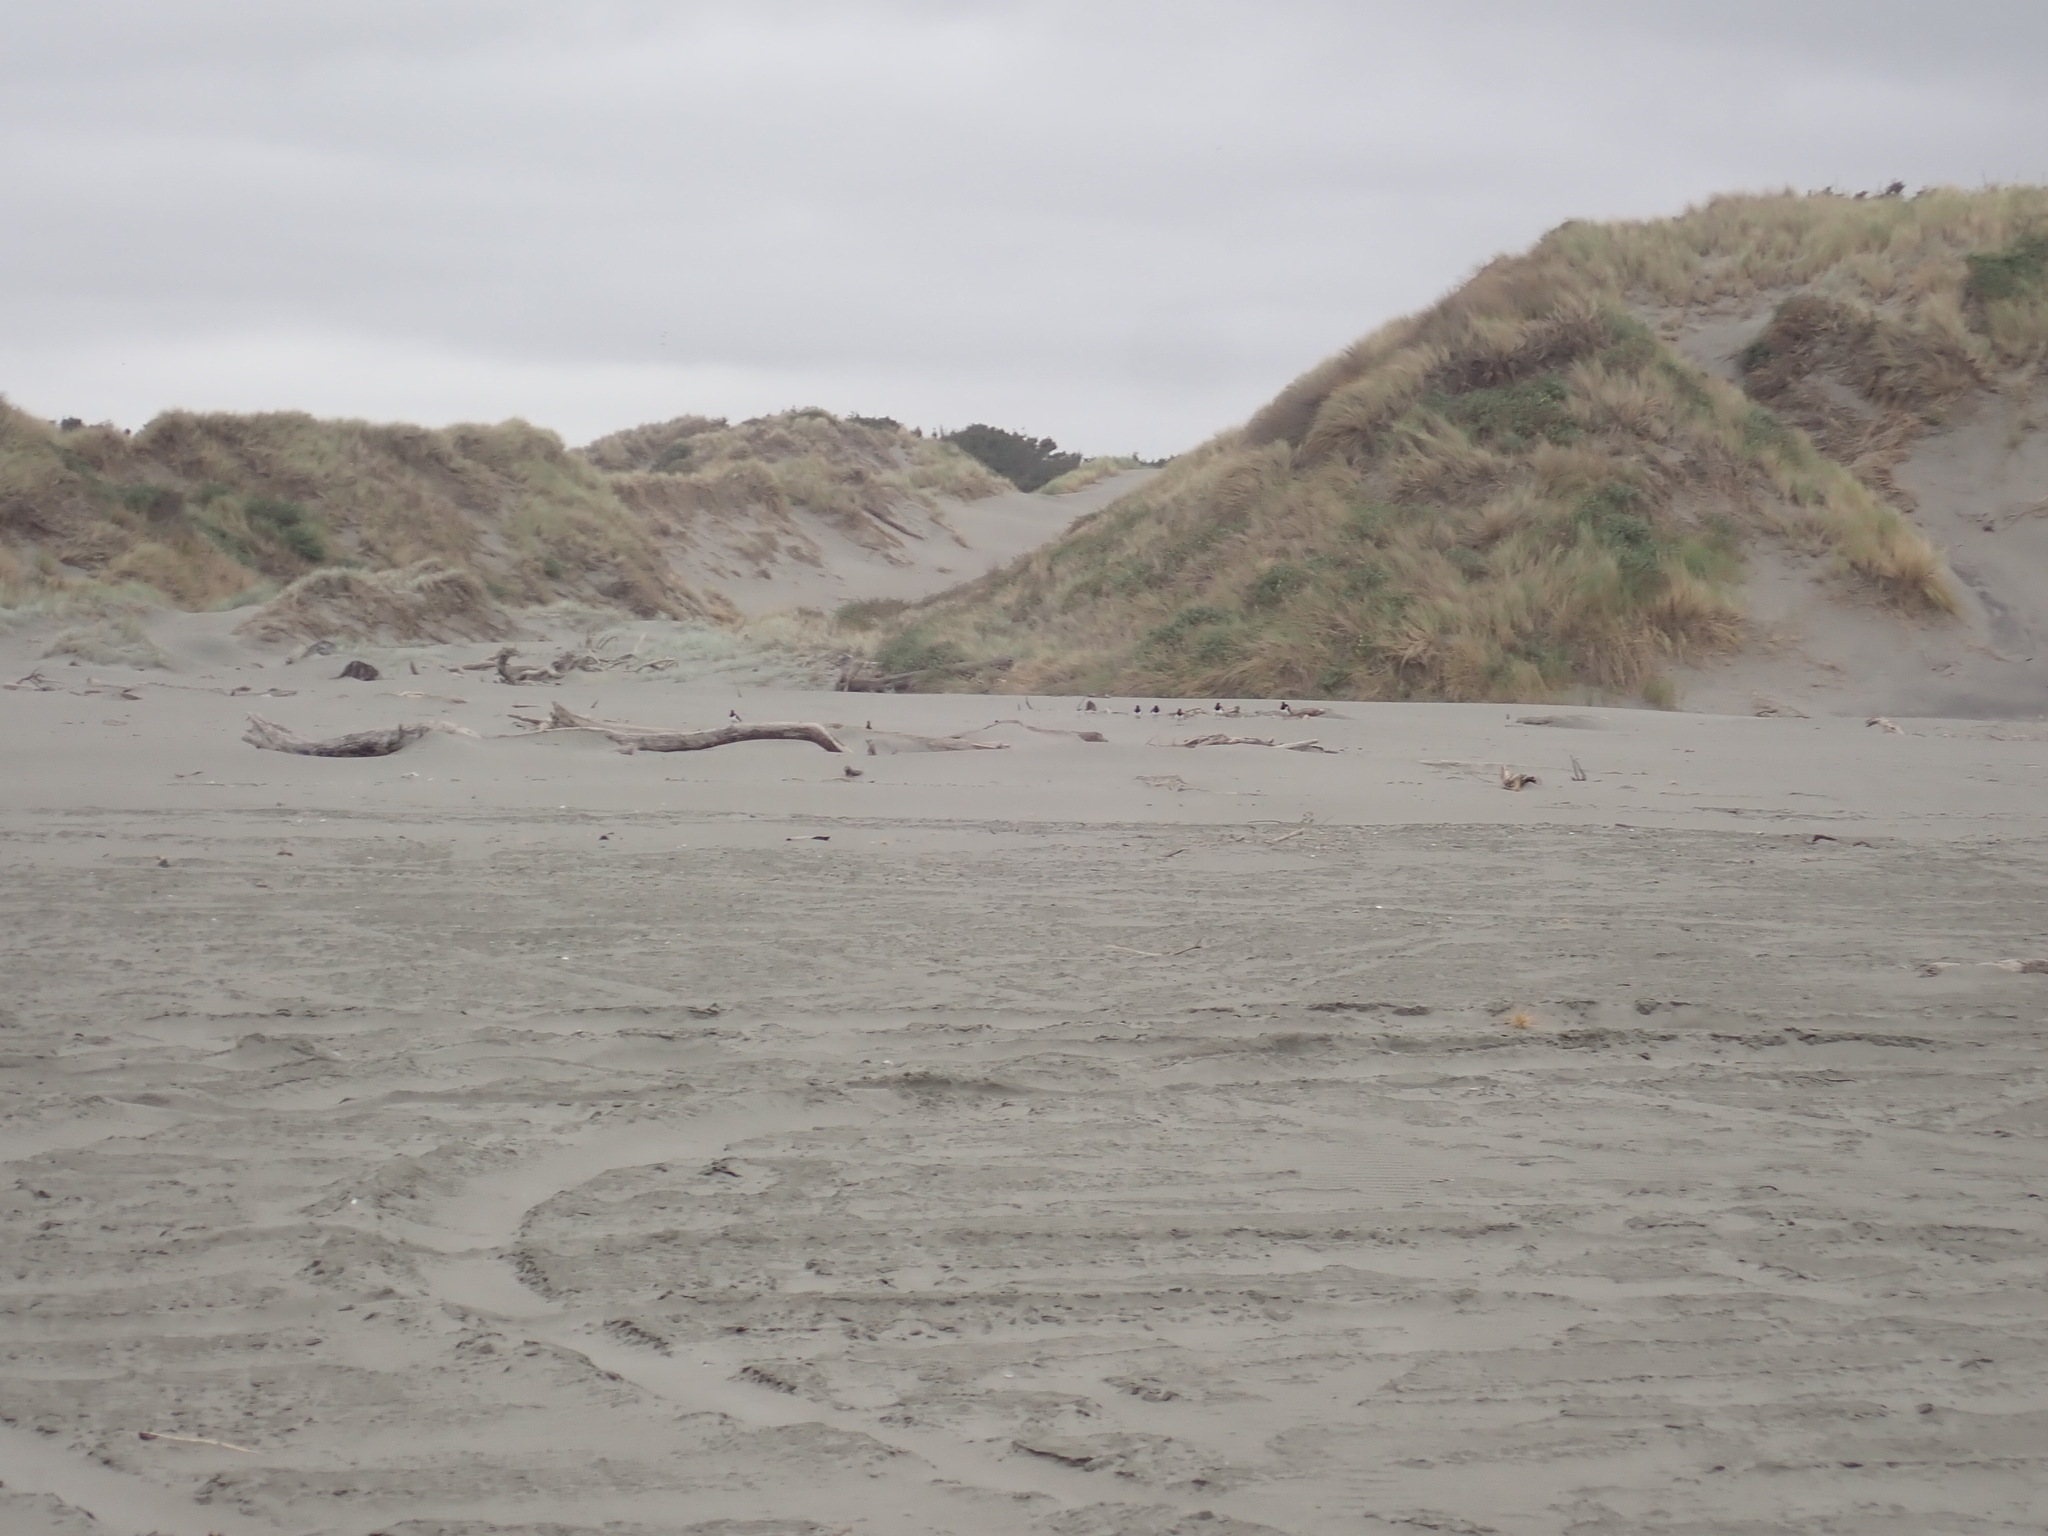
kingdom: Animalia
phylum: Chordata
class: Aves
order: Charadriiformes
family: Haematopodidae
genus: Haematopus
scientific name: Haematopus finschi
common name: South island oystercatcher
